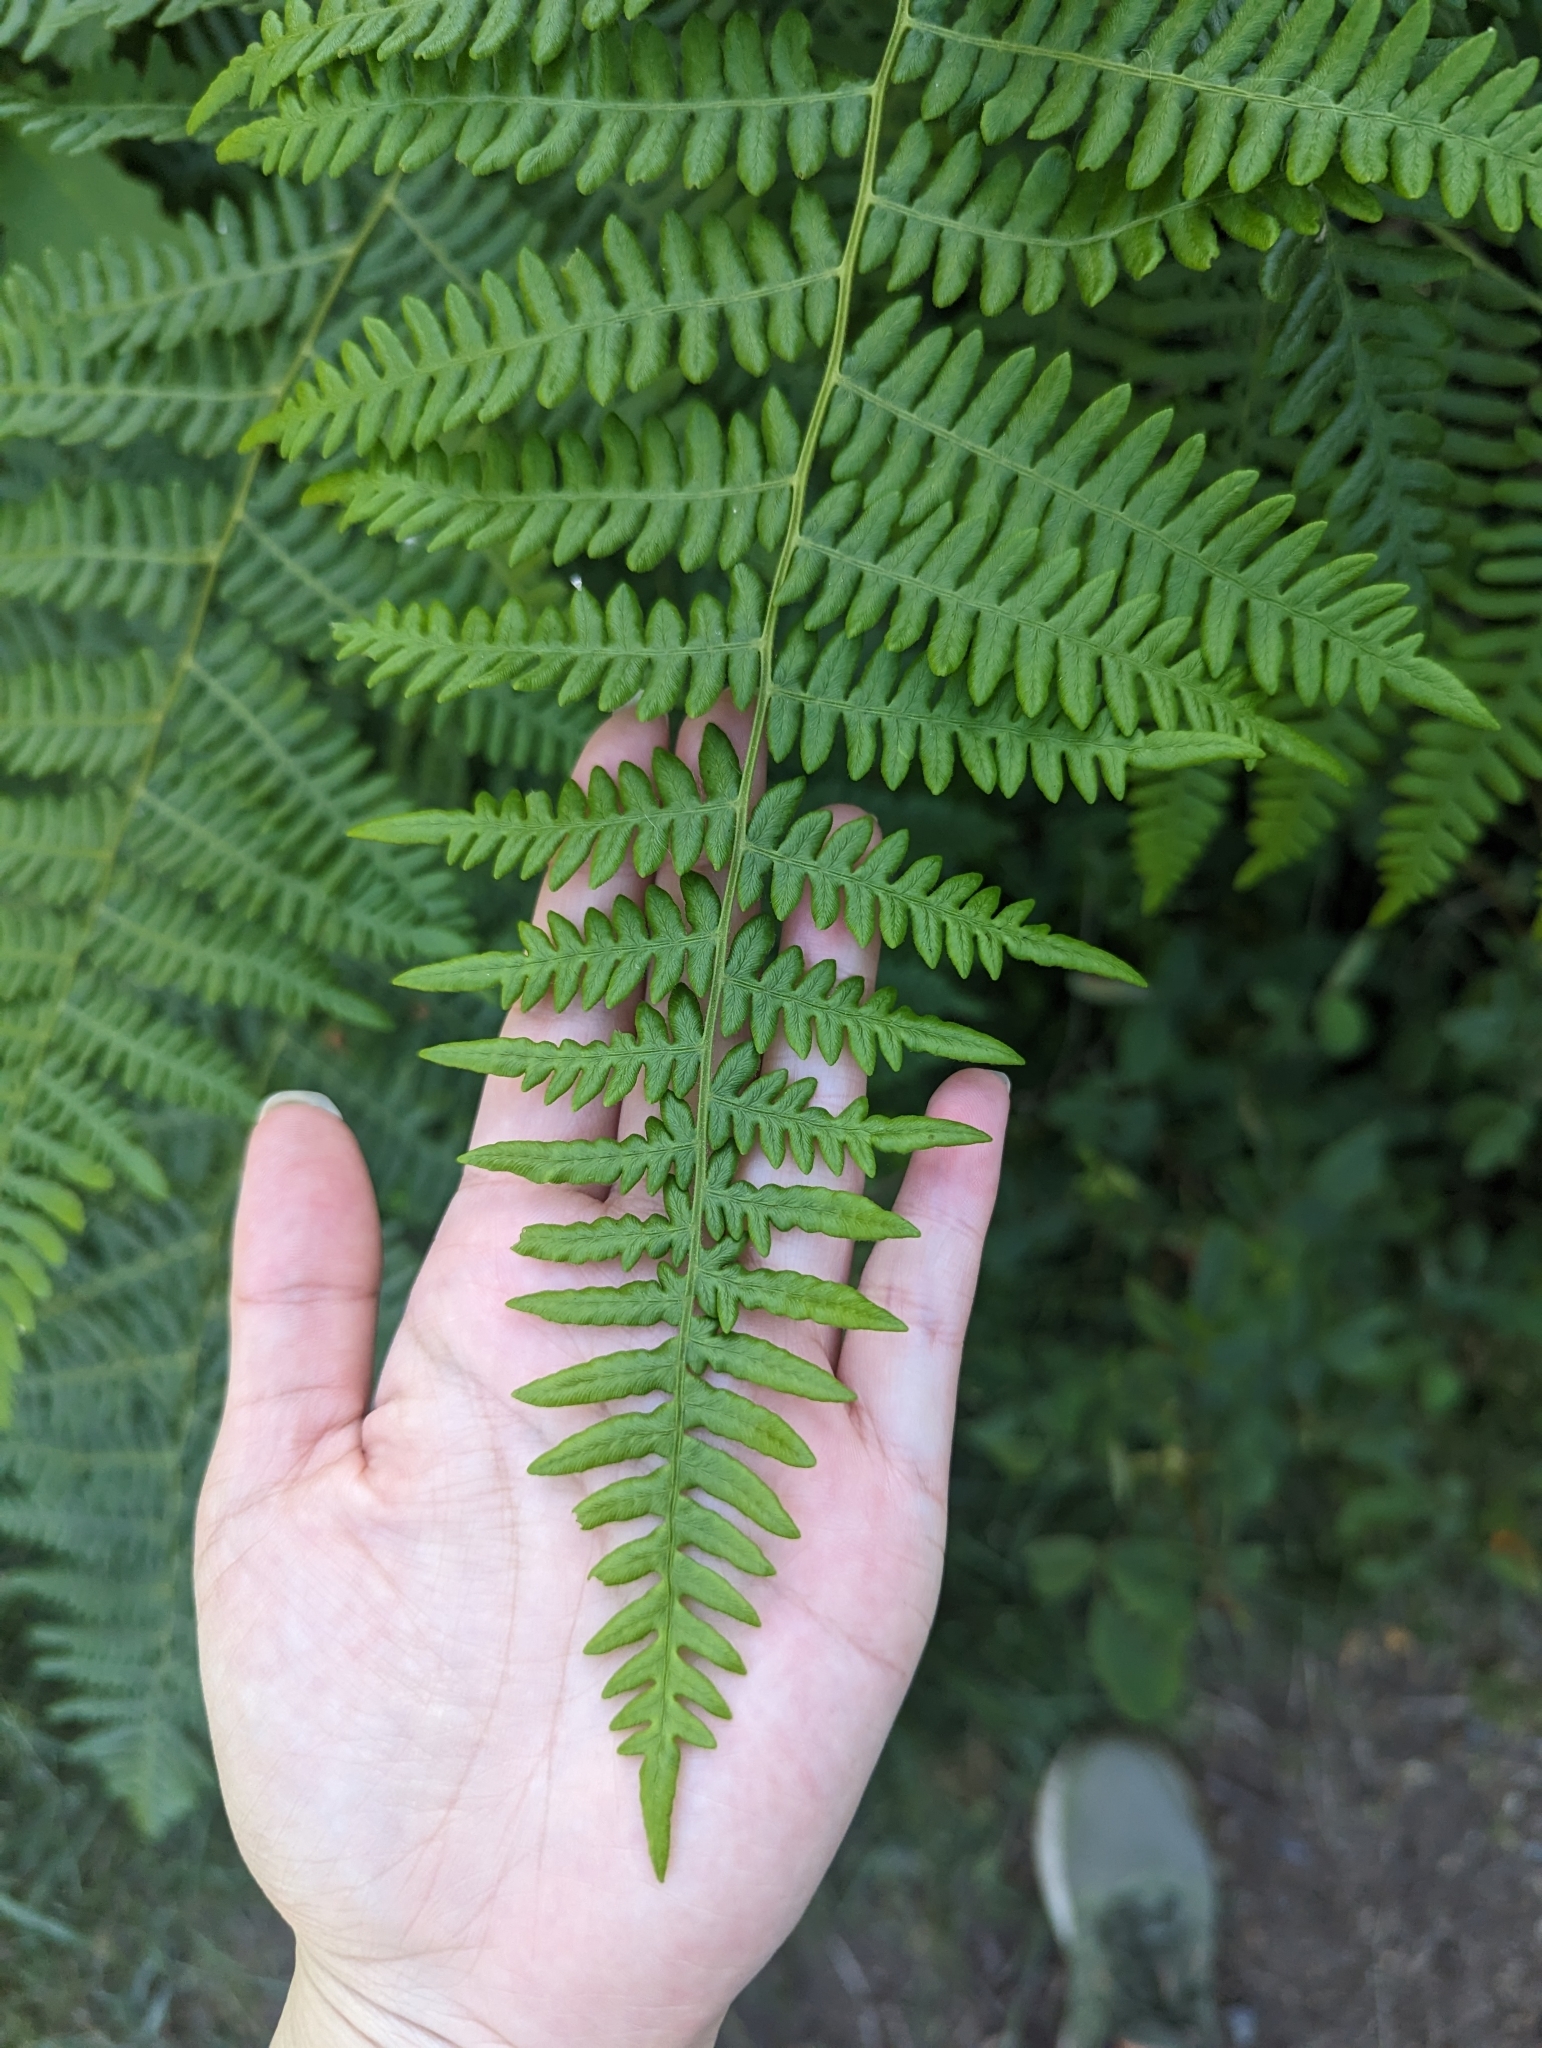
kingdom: Plantae
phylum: Tracheophyta
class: Polypodiopsida
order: Polypodiales
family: Dennstaedtiaceae
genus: Pteridium
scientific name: Pteridium aquilinum
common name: Bracken
